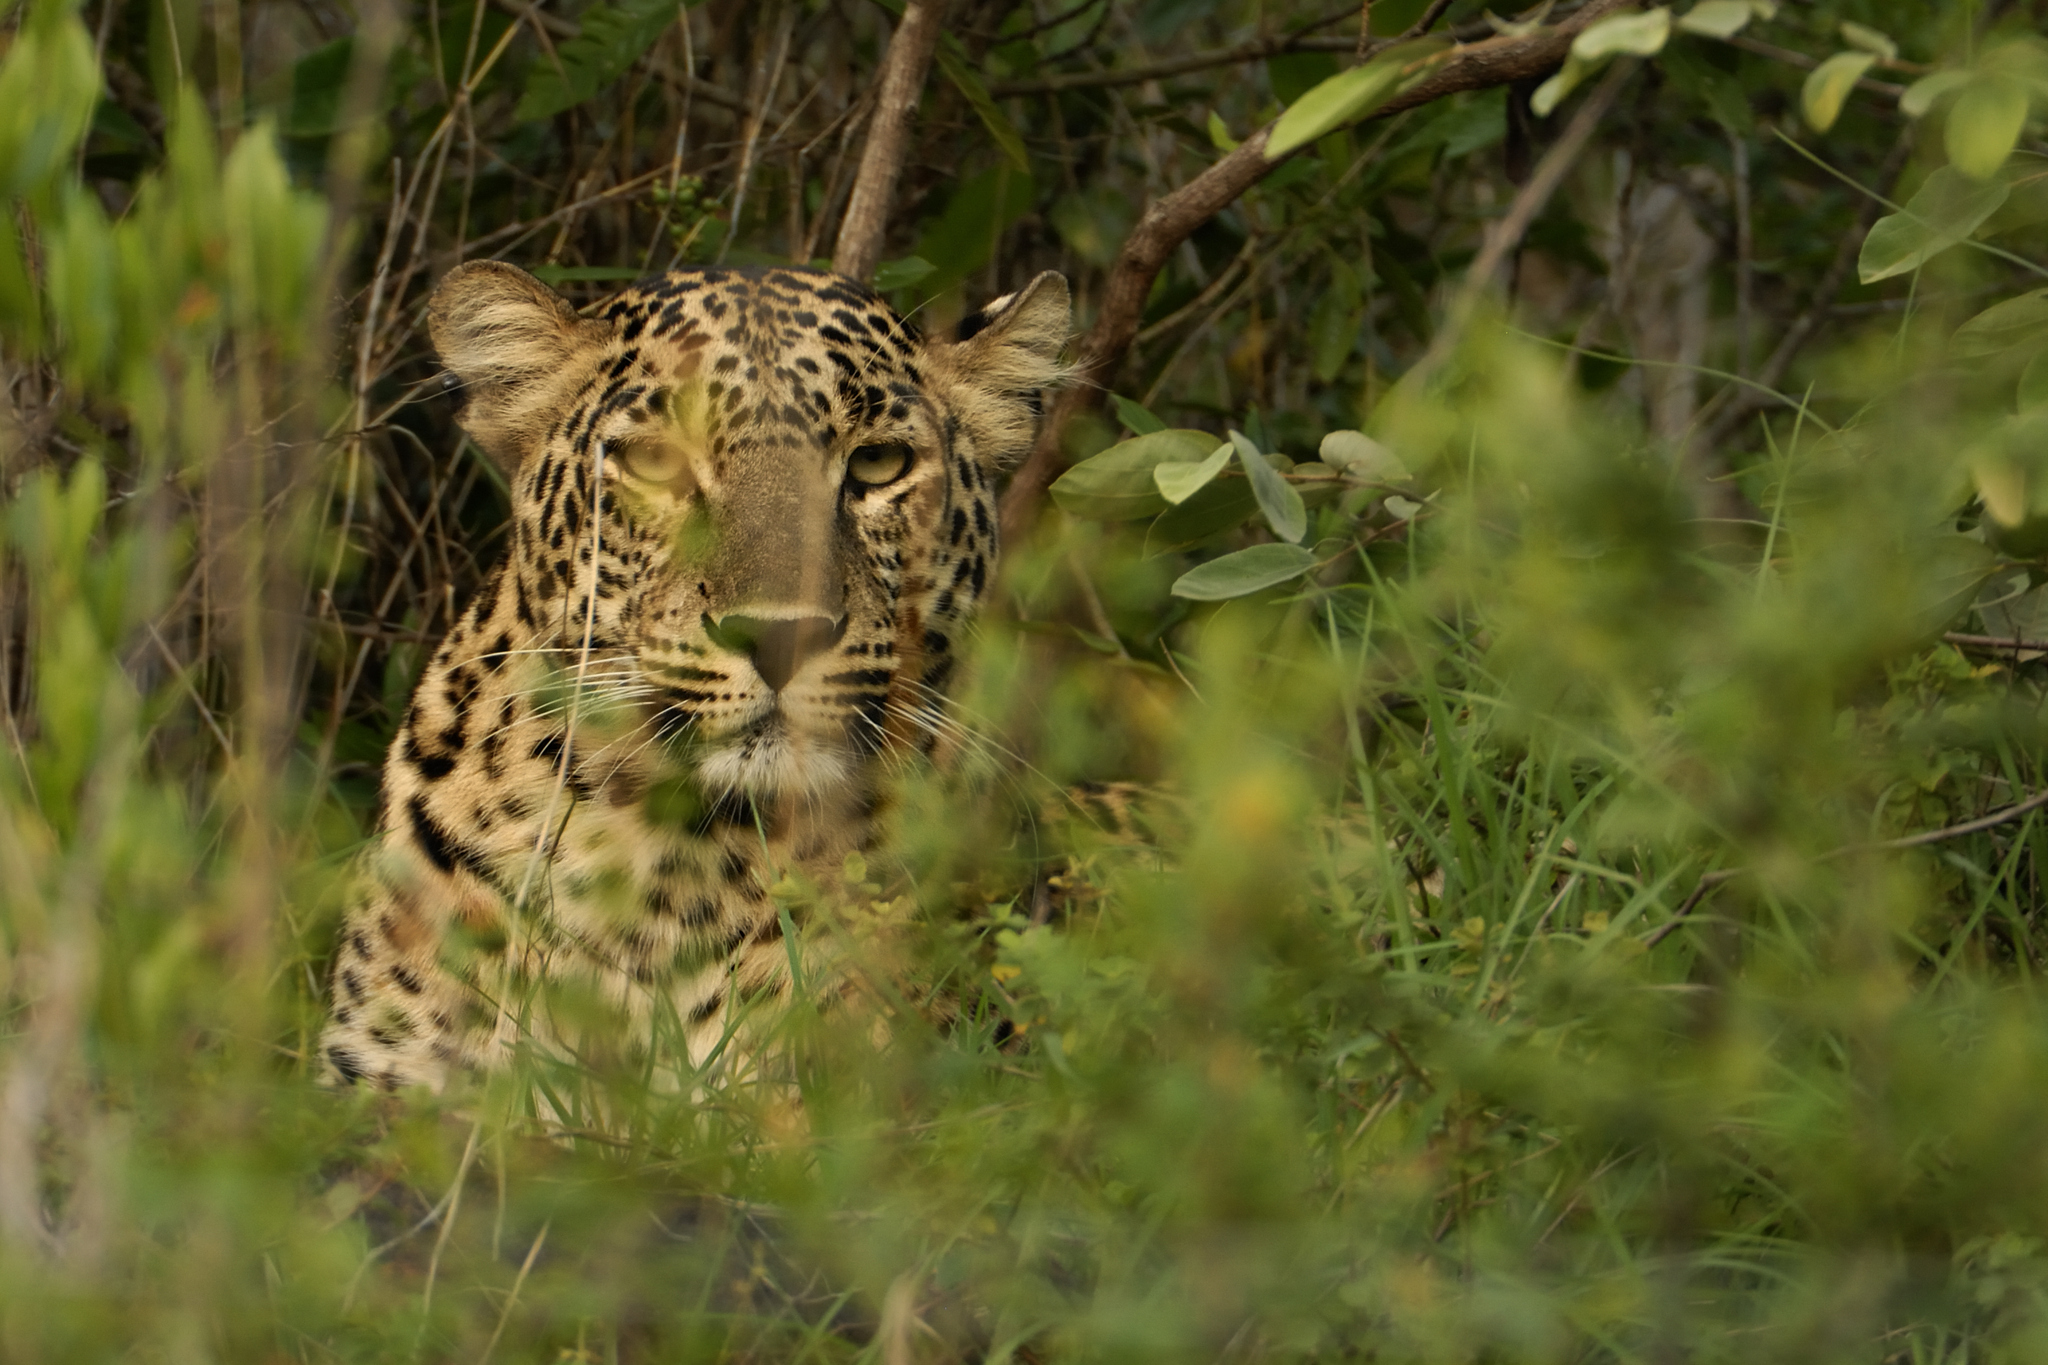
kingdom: Animalia
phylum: Chordata
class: Mammalia
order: Carnivora
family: Felidae
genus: Panthera
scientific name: Panthera pardus
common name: Leopard
